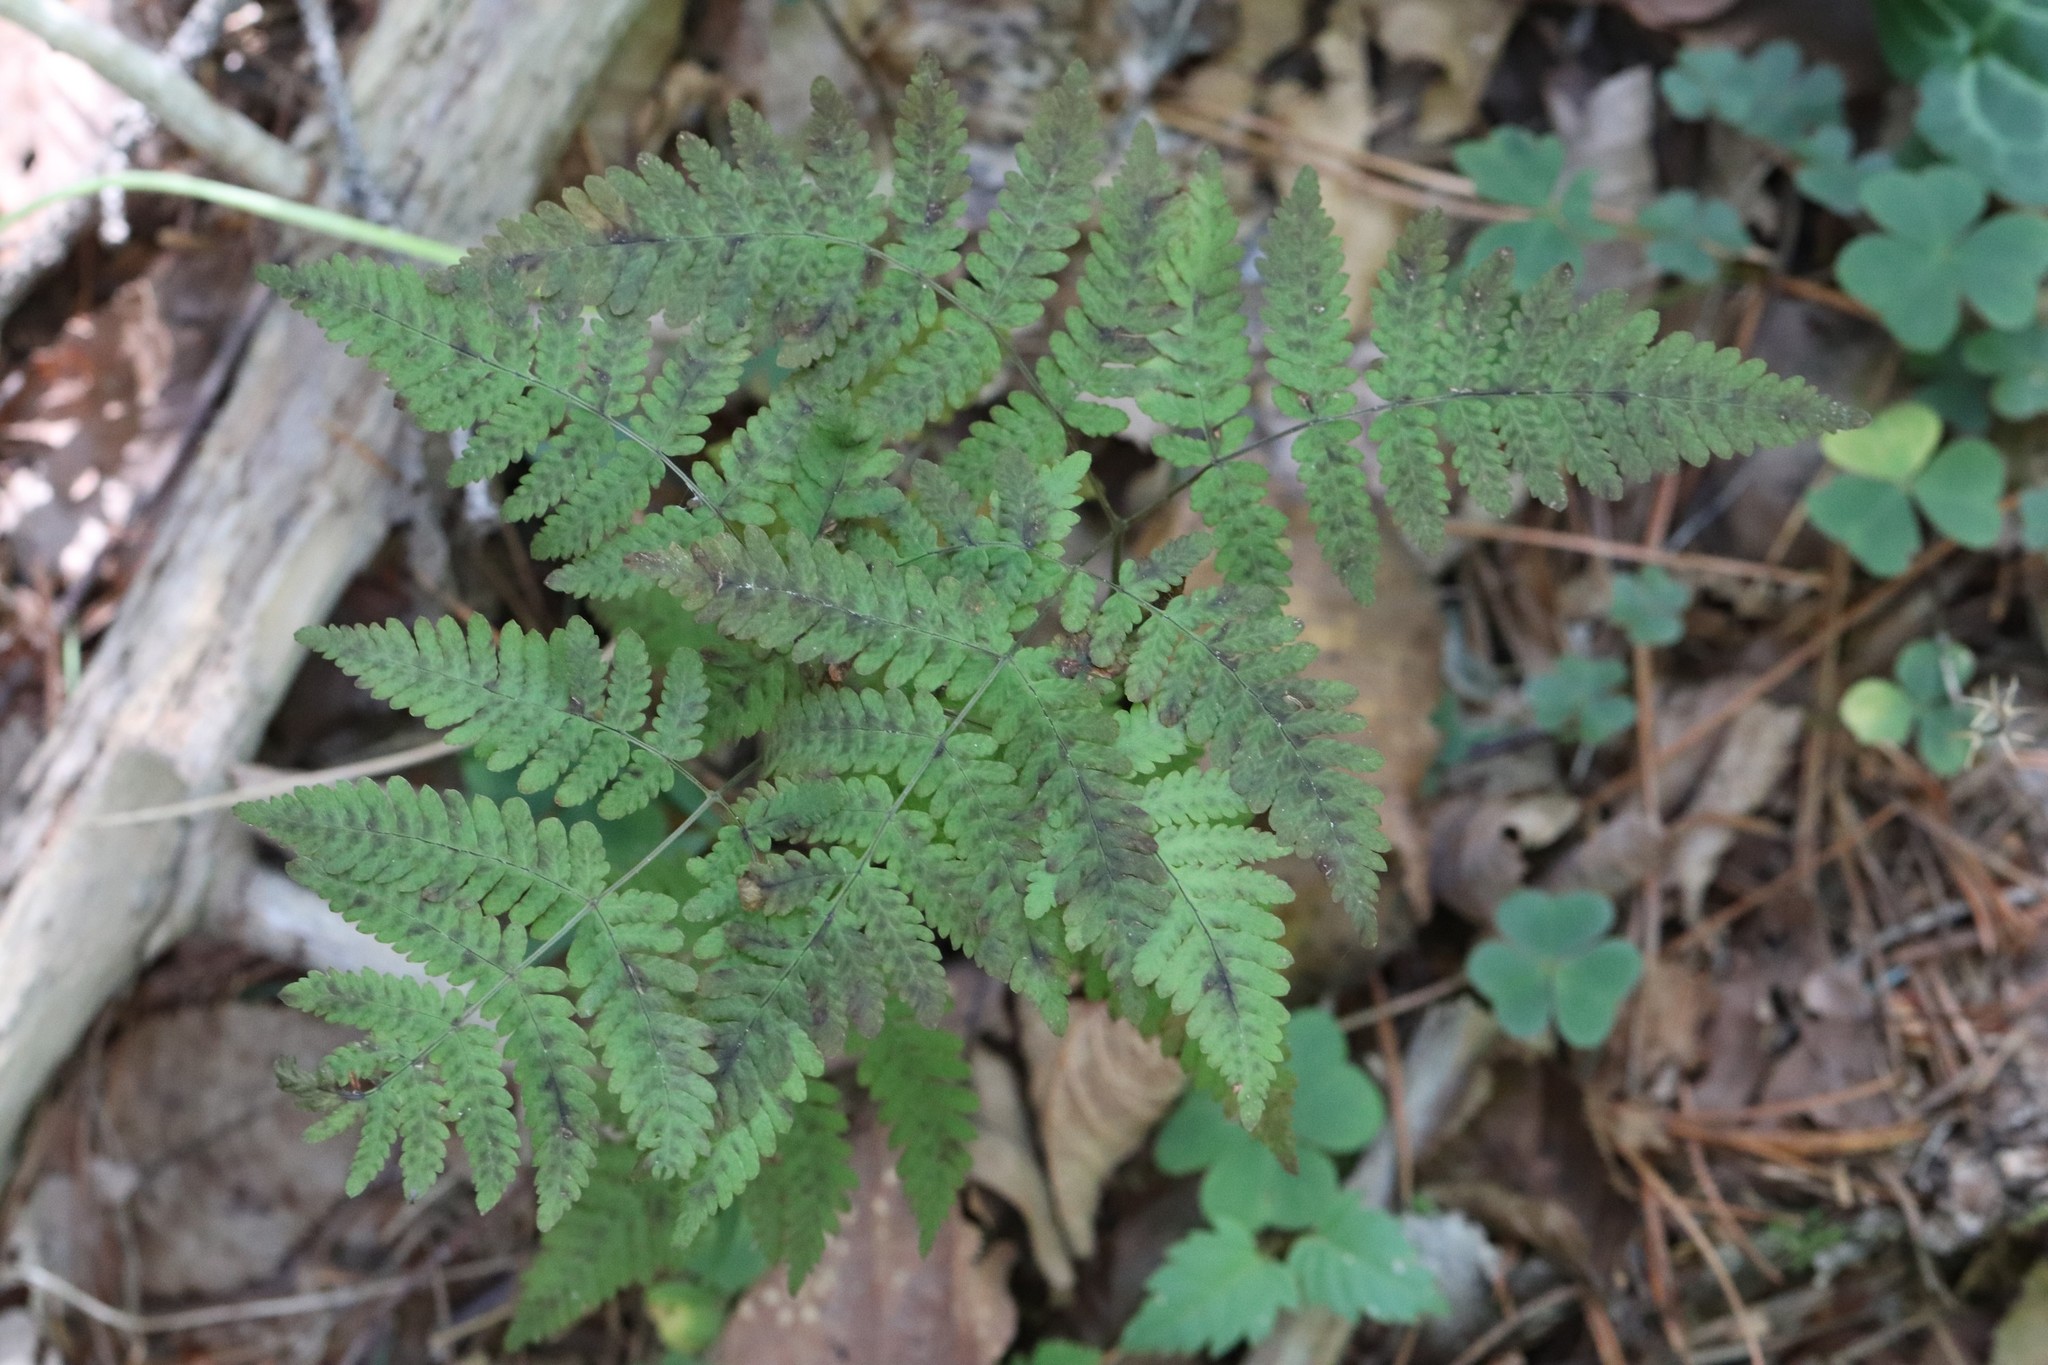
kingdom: Plantae
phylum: Tracheophyta
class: Polypodiopsida
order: Polypodiales
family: Cystopteridaceae
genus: Gymnocarpium
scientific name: Gymnocarpium dryopteris
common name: Oak fern
